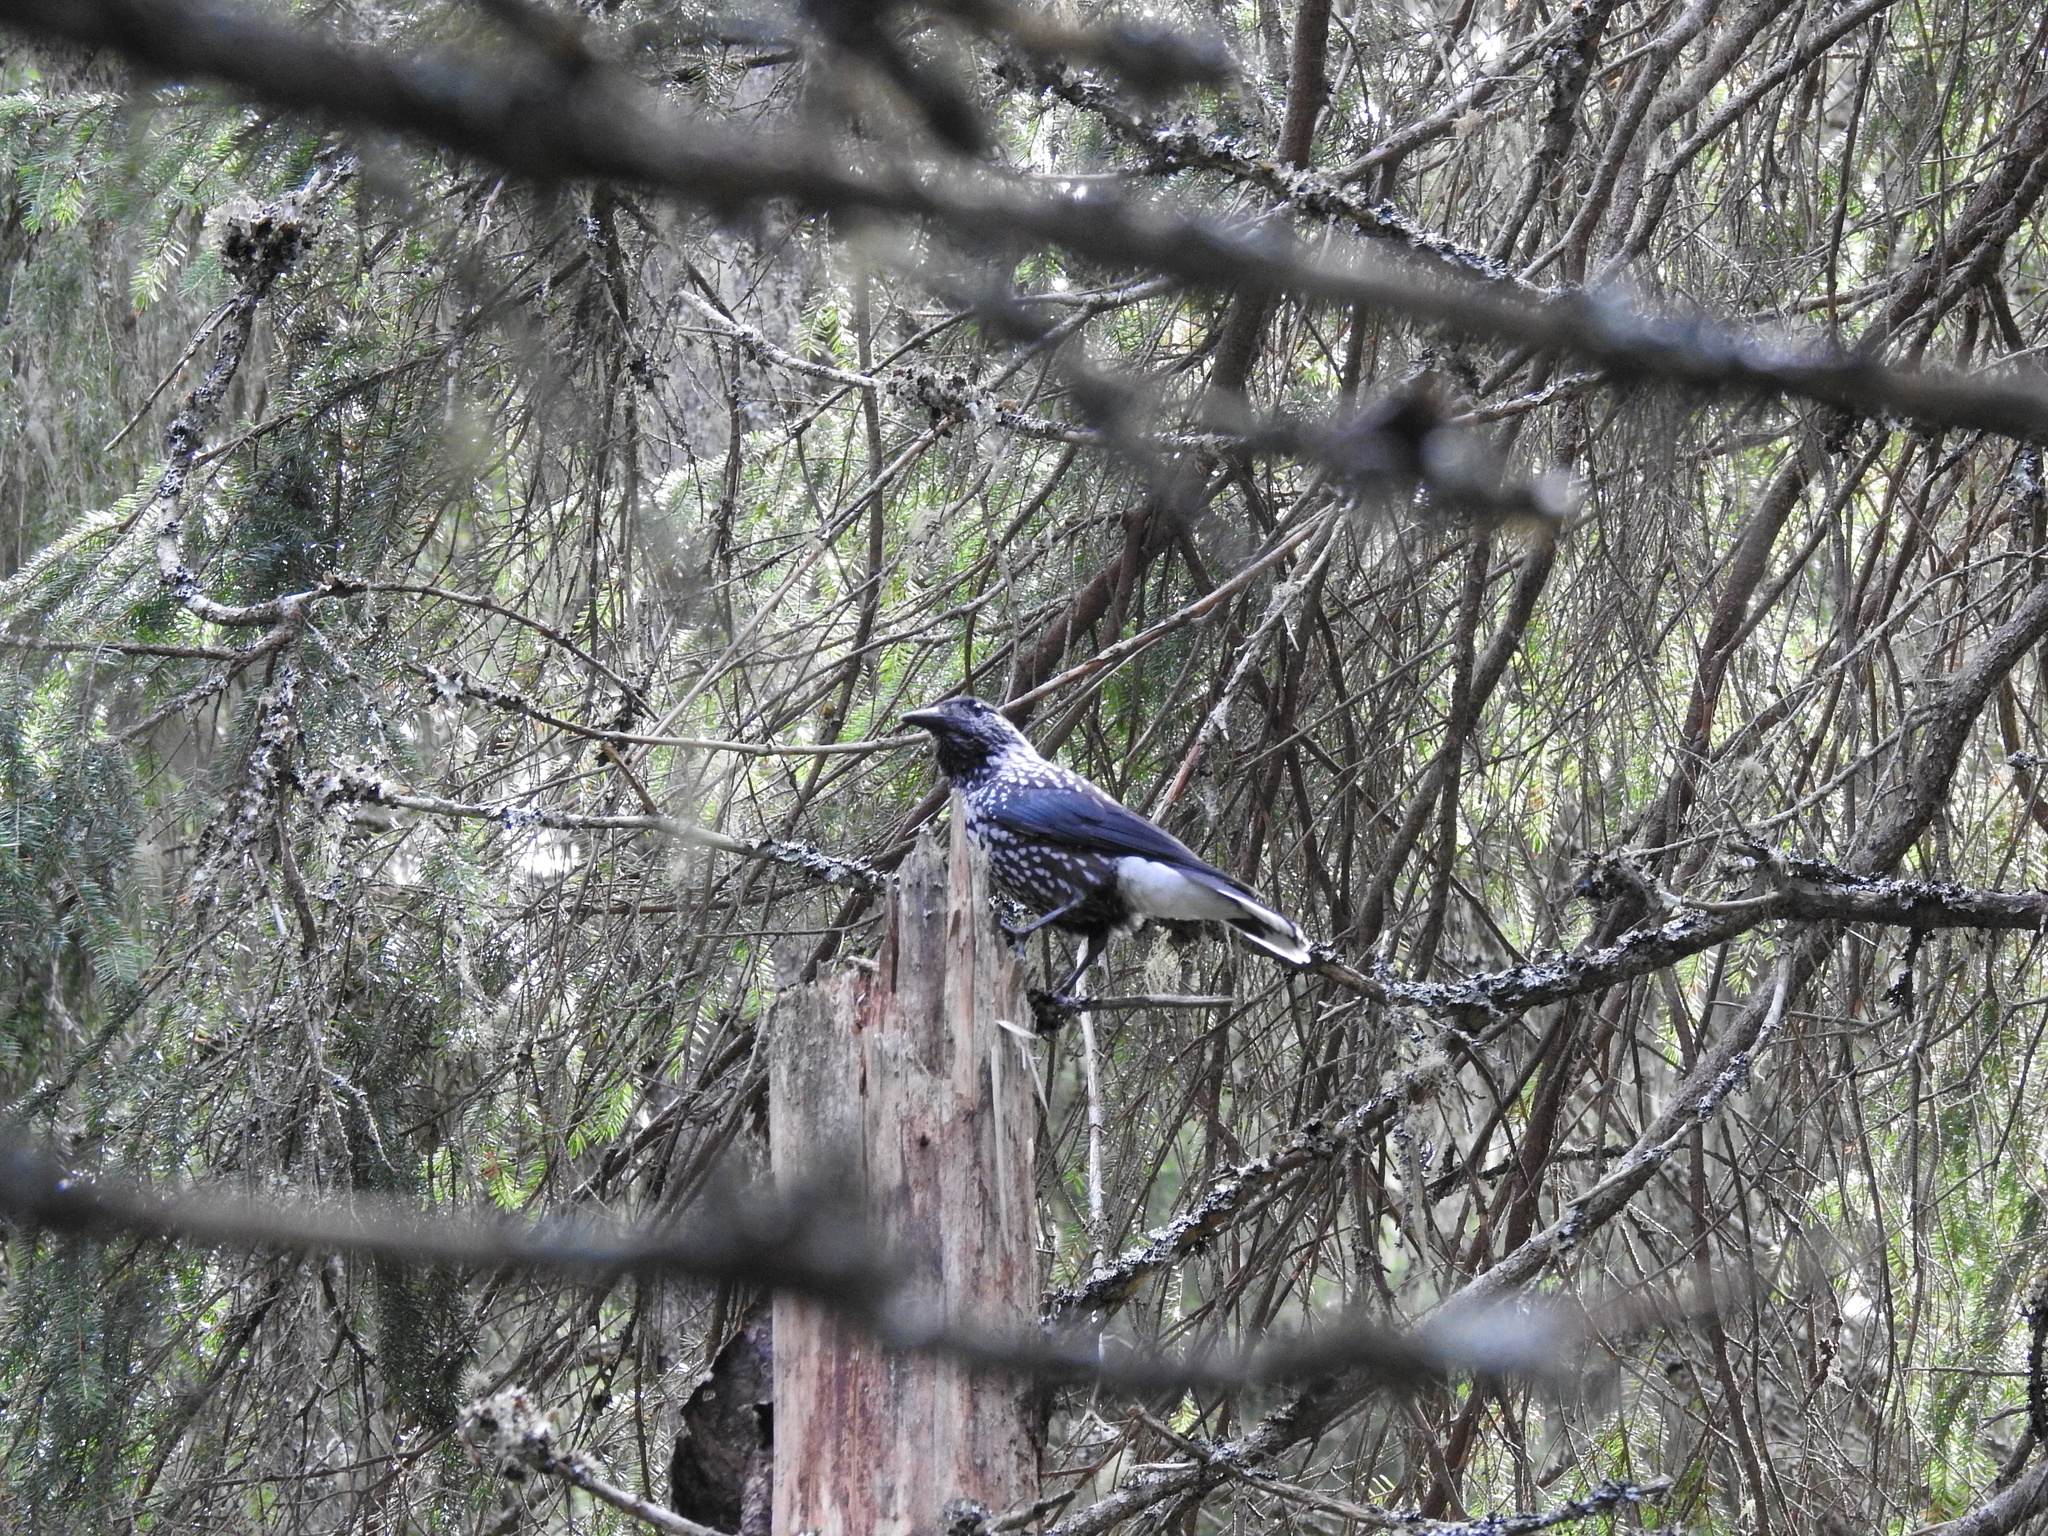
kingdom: Animalia
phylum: Chordata
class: Aves
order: Passeriformes
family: Corvidae
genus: Nucifraga
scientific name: Nucifraga caryocatactes
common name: Spotted nutcracker
